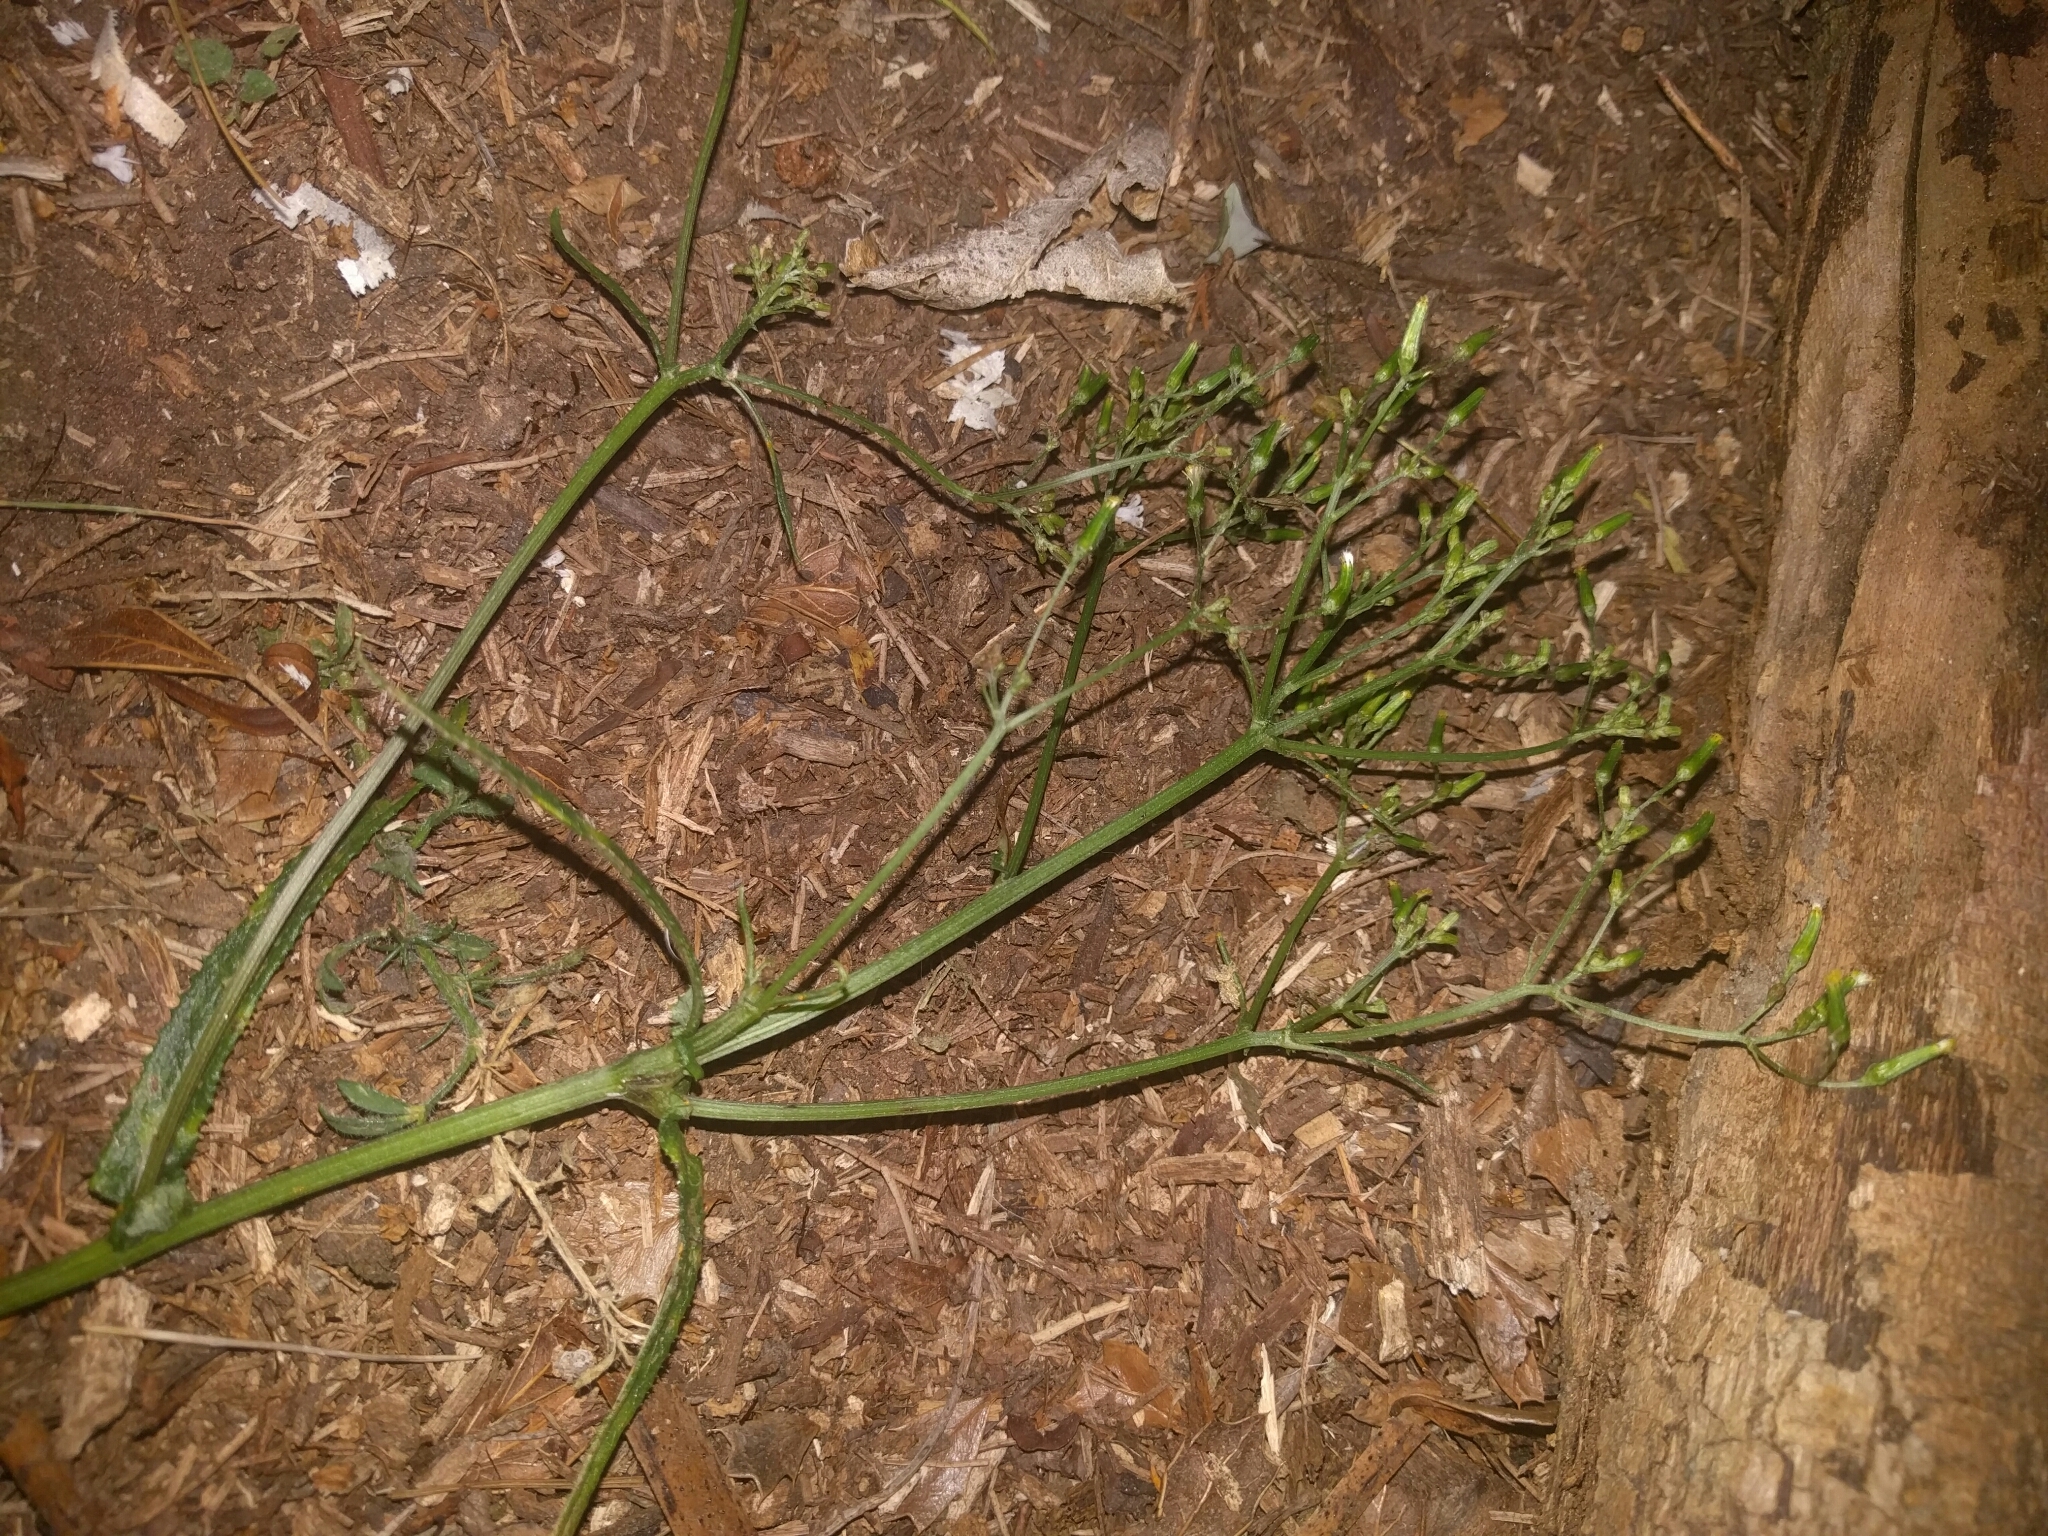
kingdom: Plantae
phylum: Tracheophyta
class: Magnoliopsida
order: Asterales
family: Asteraceae
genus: Senecio
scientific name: Senecio minimus
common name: Toothed fireweed
